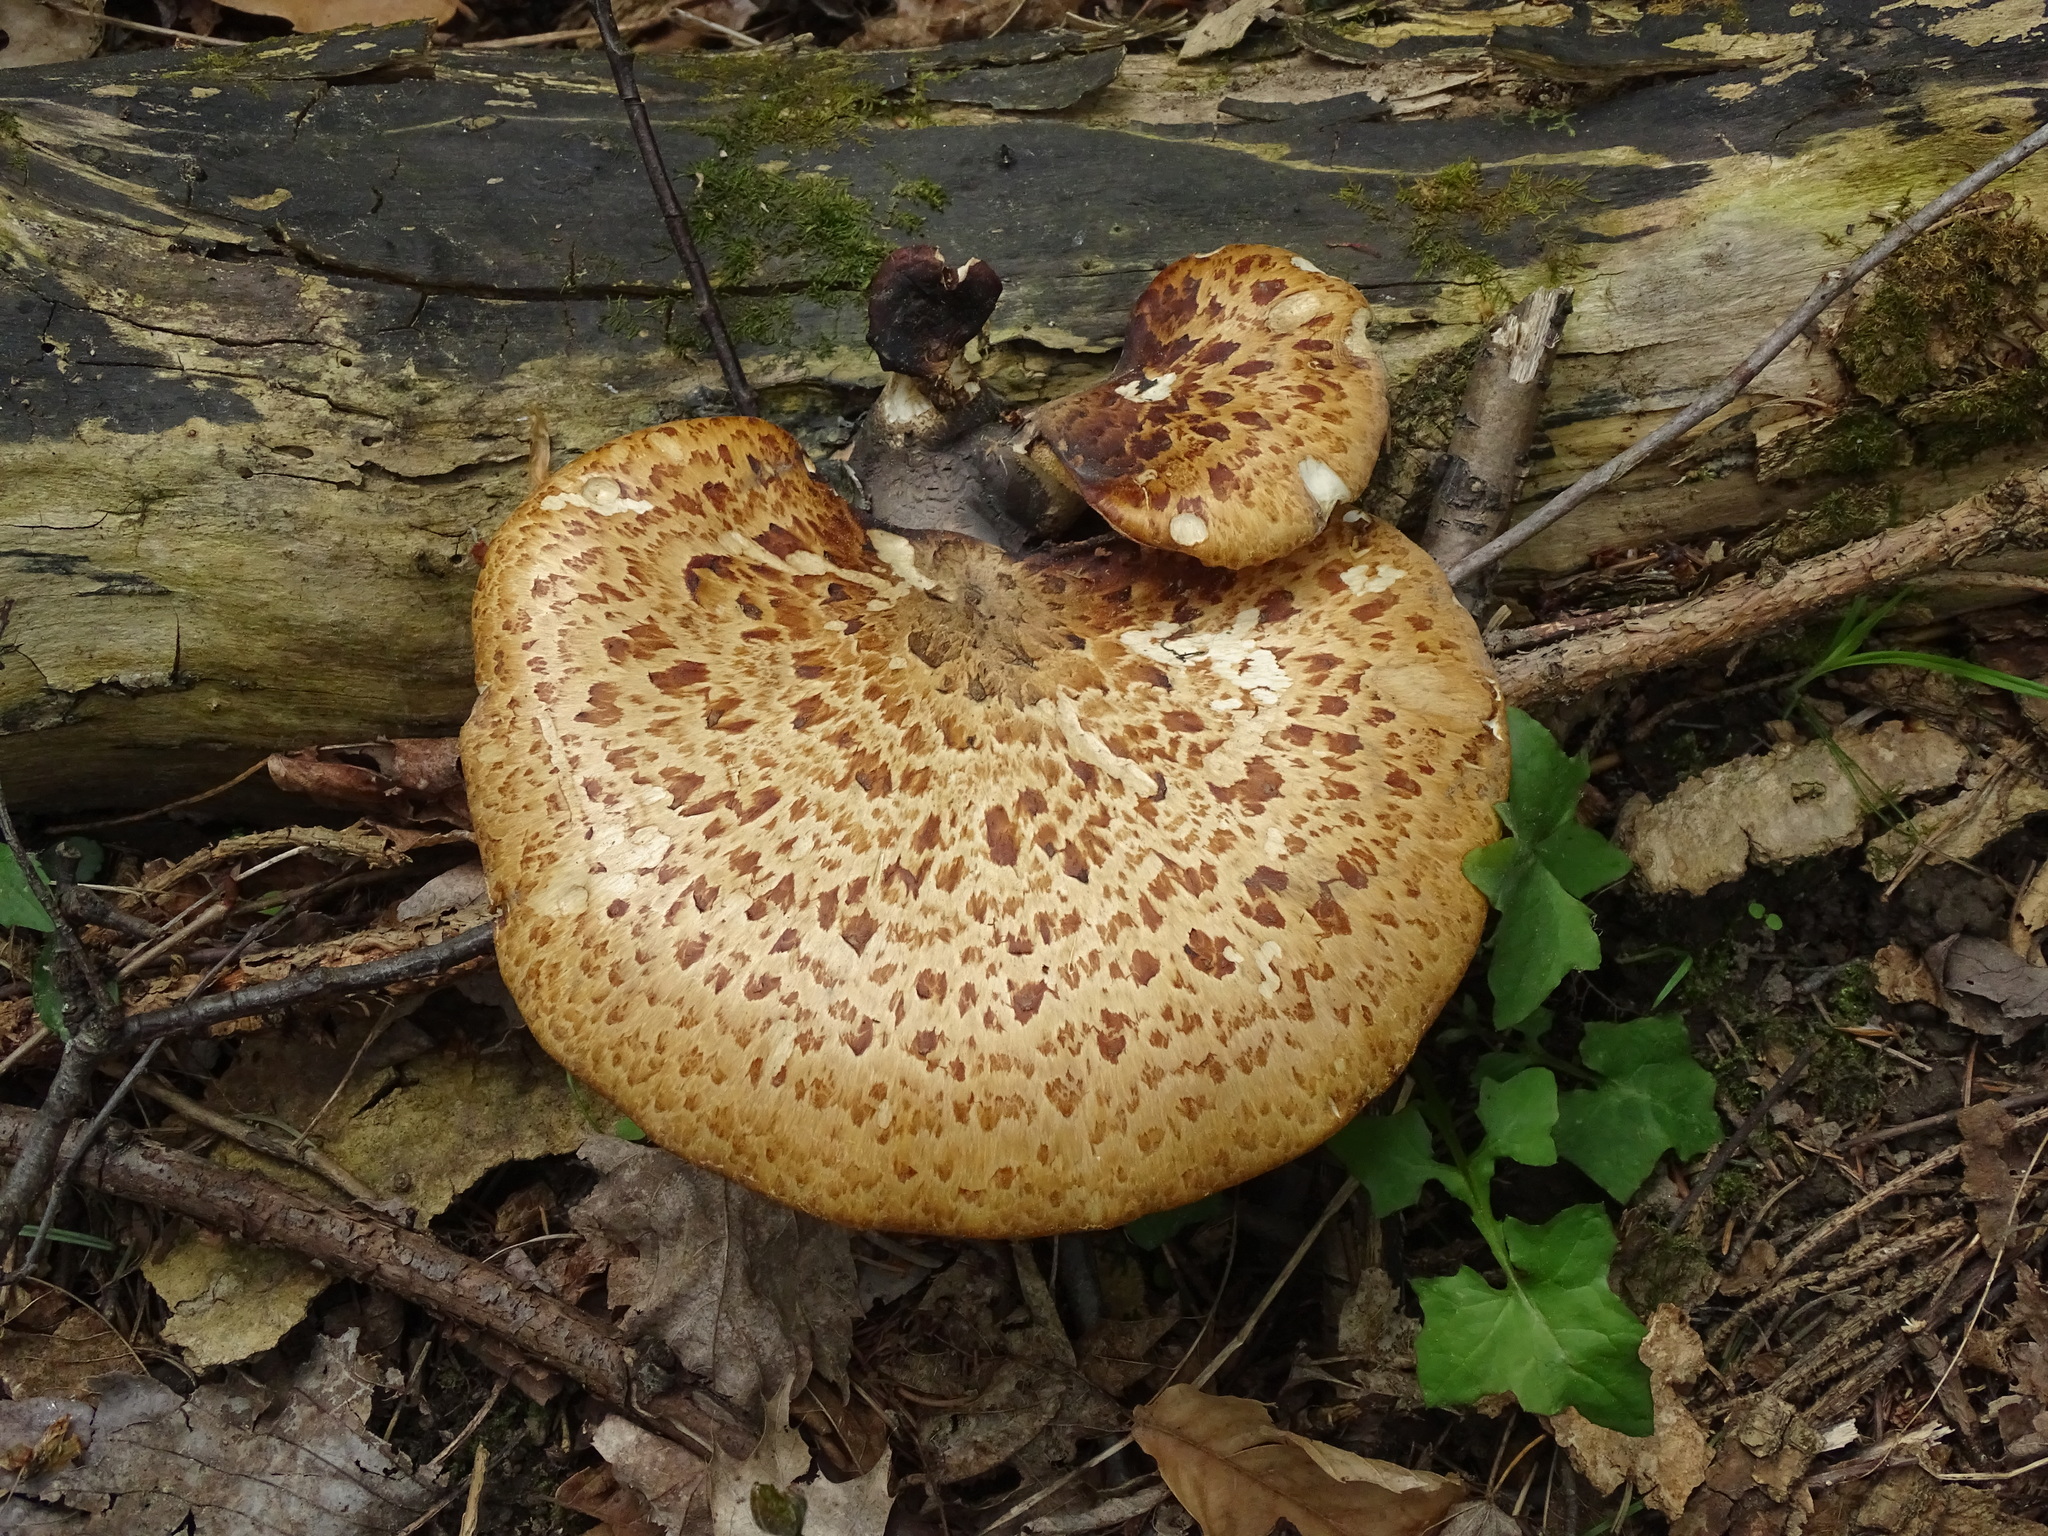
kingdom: Fungi
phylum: Basidiomycota
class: Agaricomycetes
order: Polyporales
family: Polyporaceae
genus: Cerioporus
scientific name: Cerioporus squamosus
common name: Dryad's saddle
